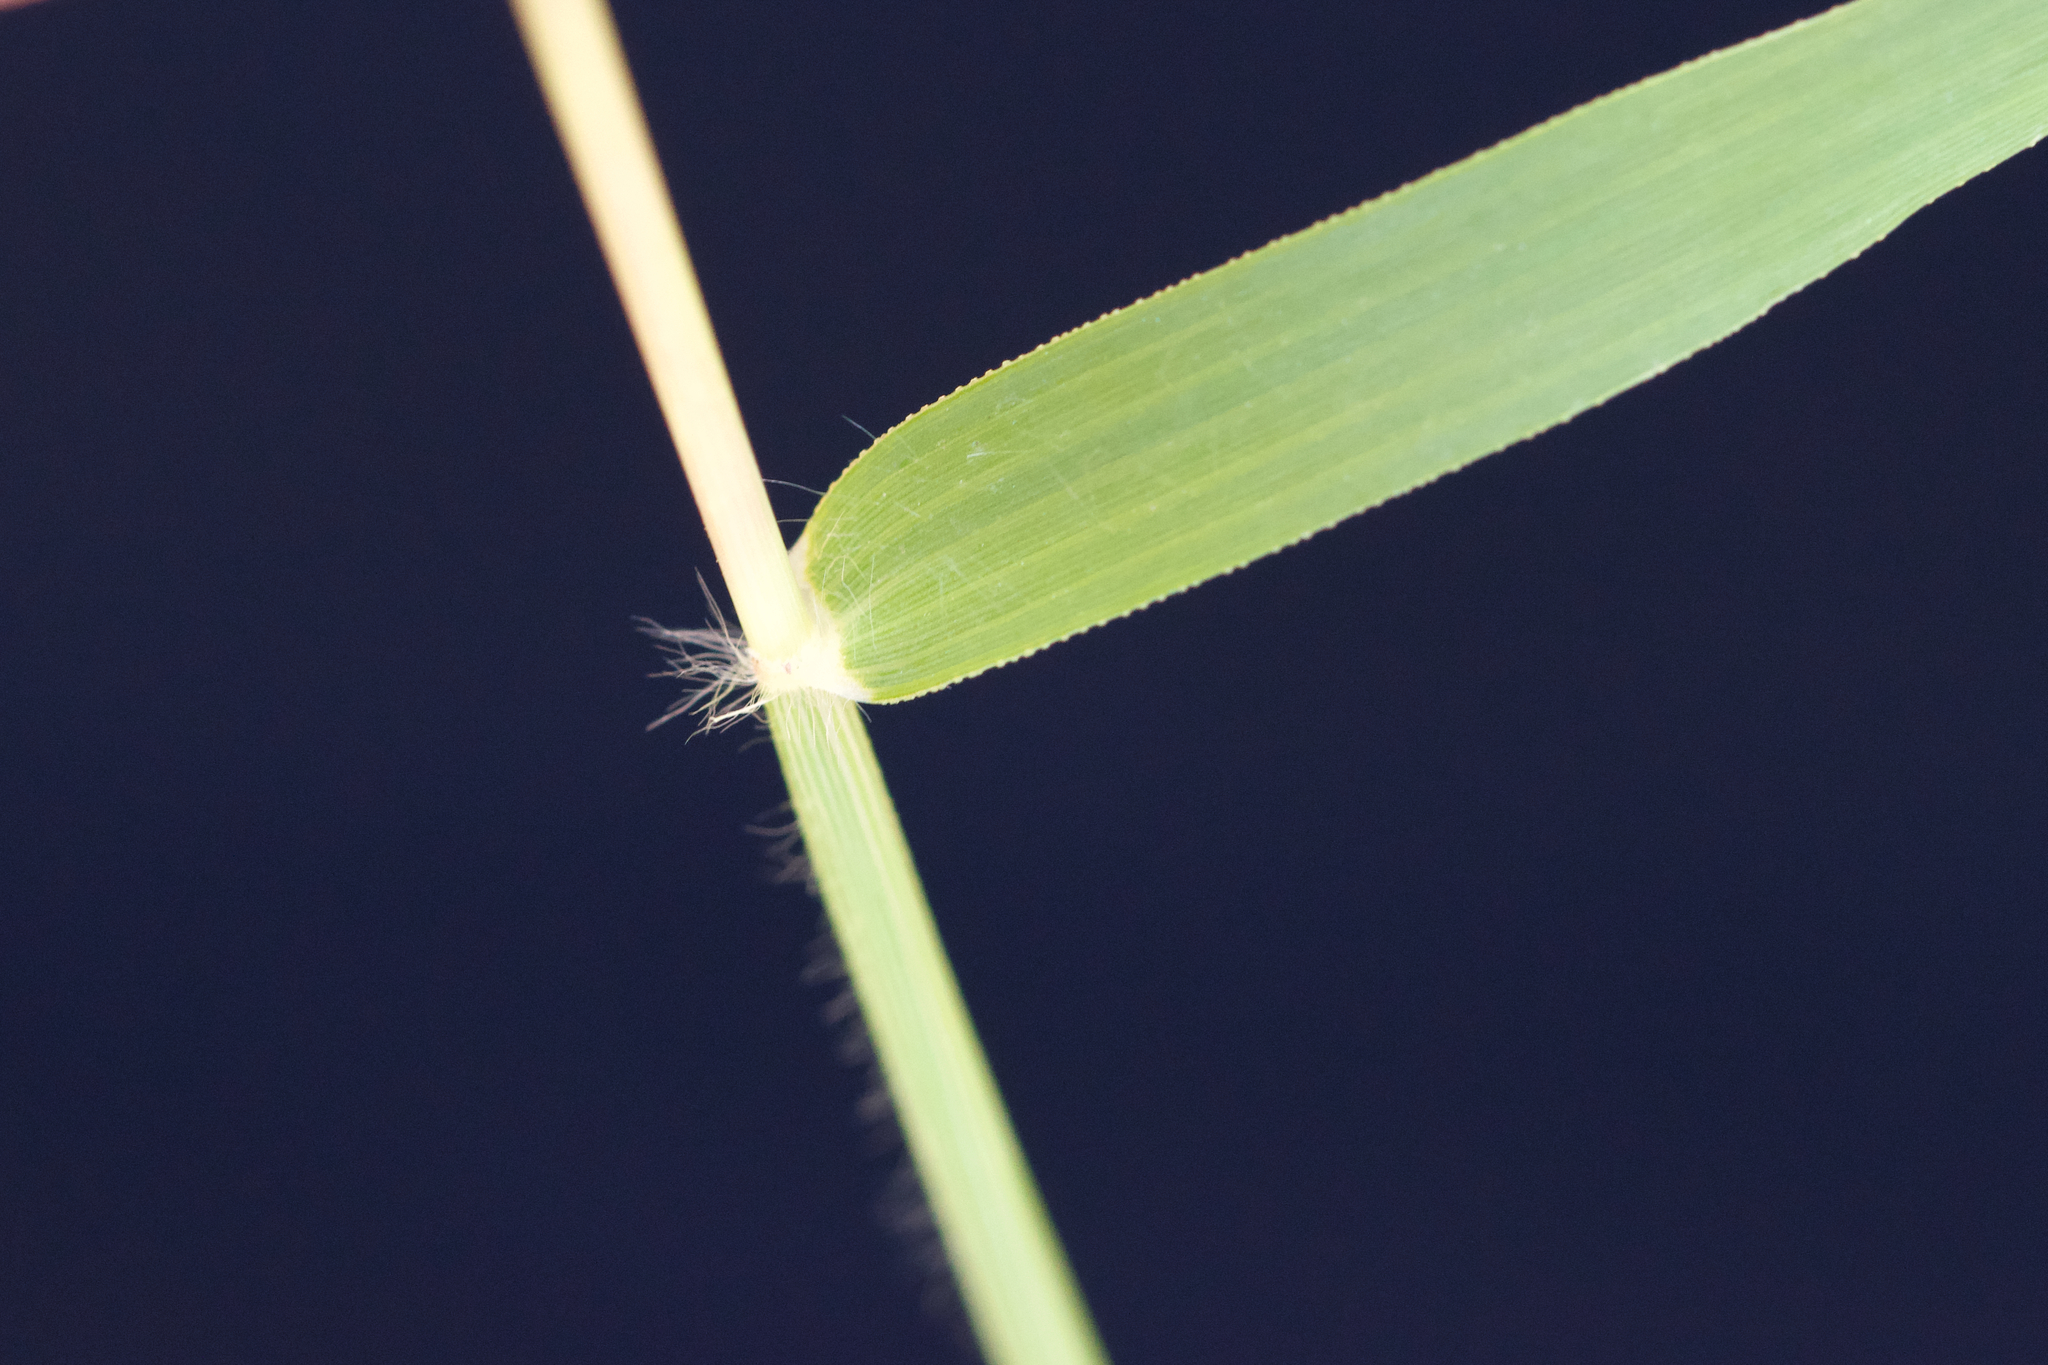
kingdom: Plantae
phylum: Tracheophyta
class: Liliopsida
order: Poales
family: Poaceae
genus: Eragrostis
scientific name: Eragrostis minor
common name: Small love-grass
